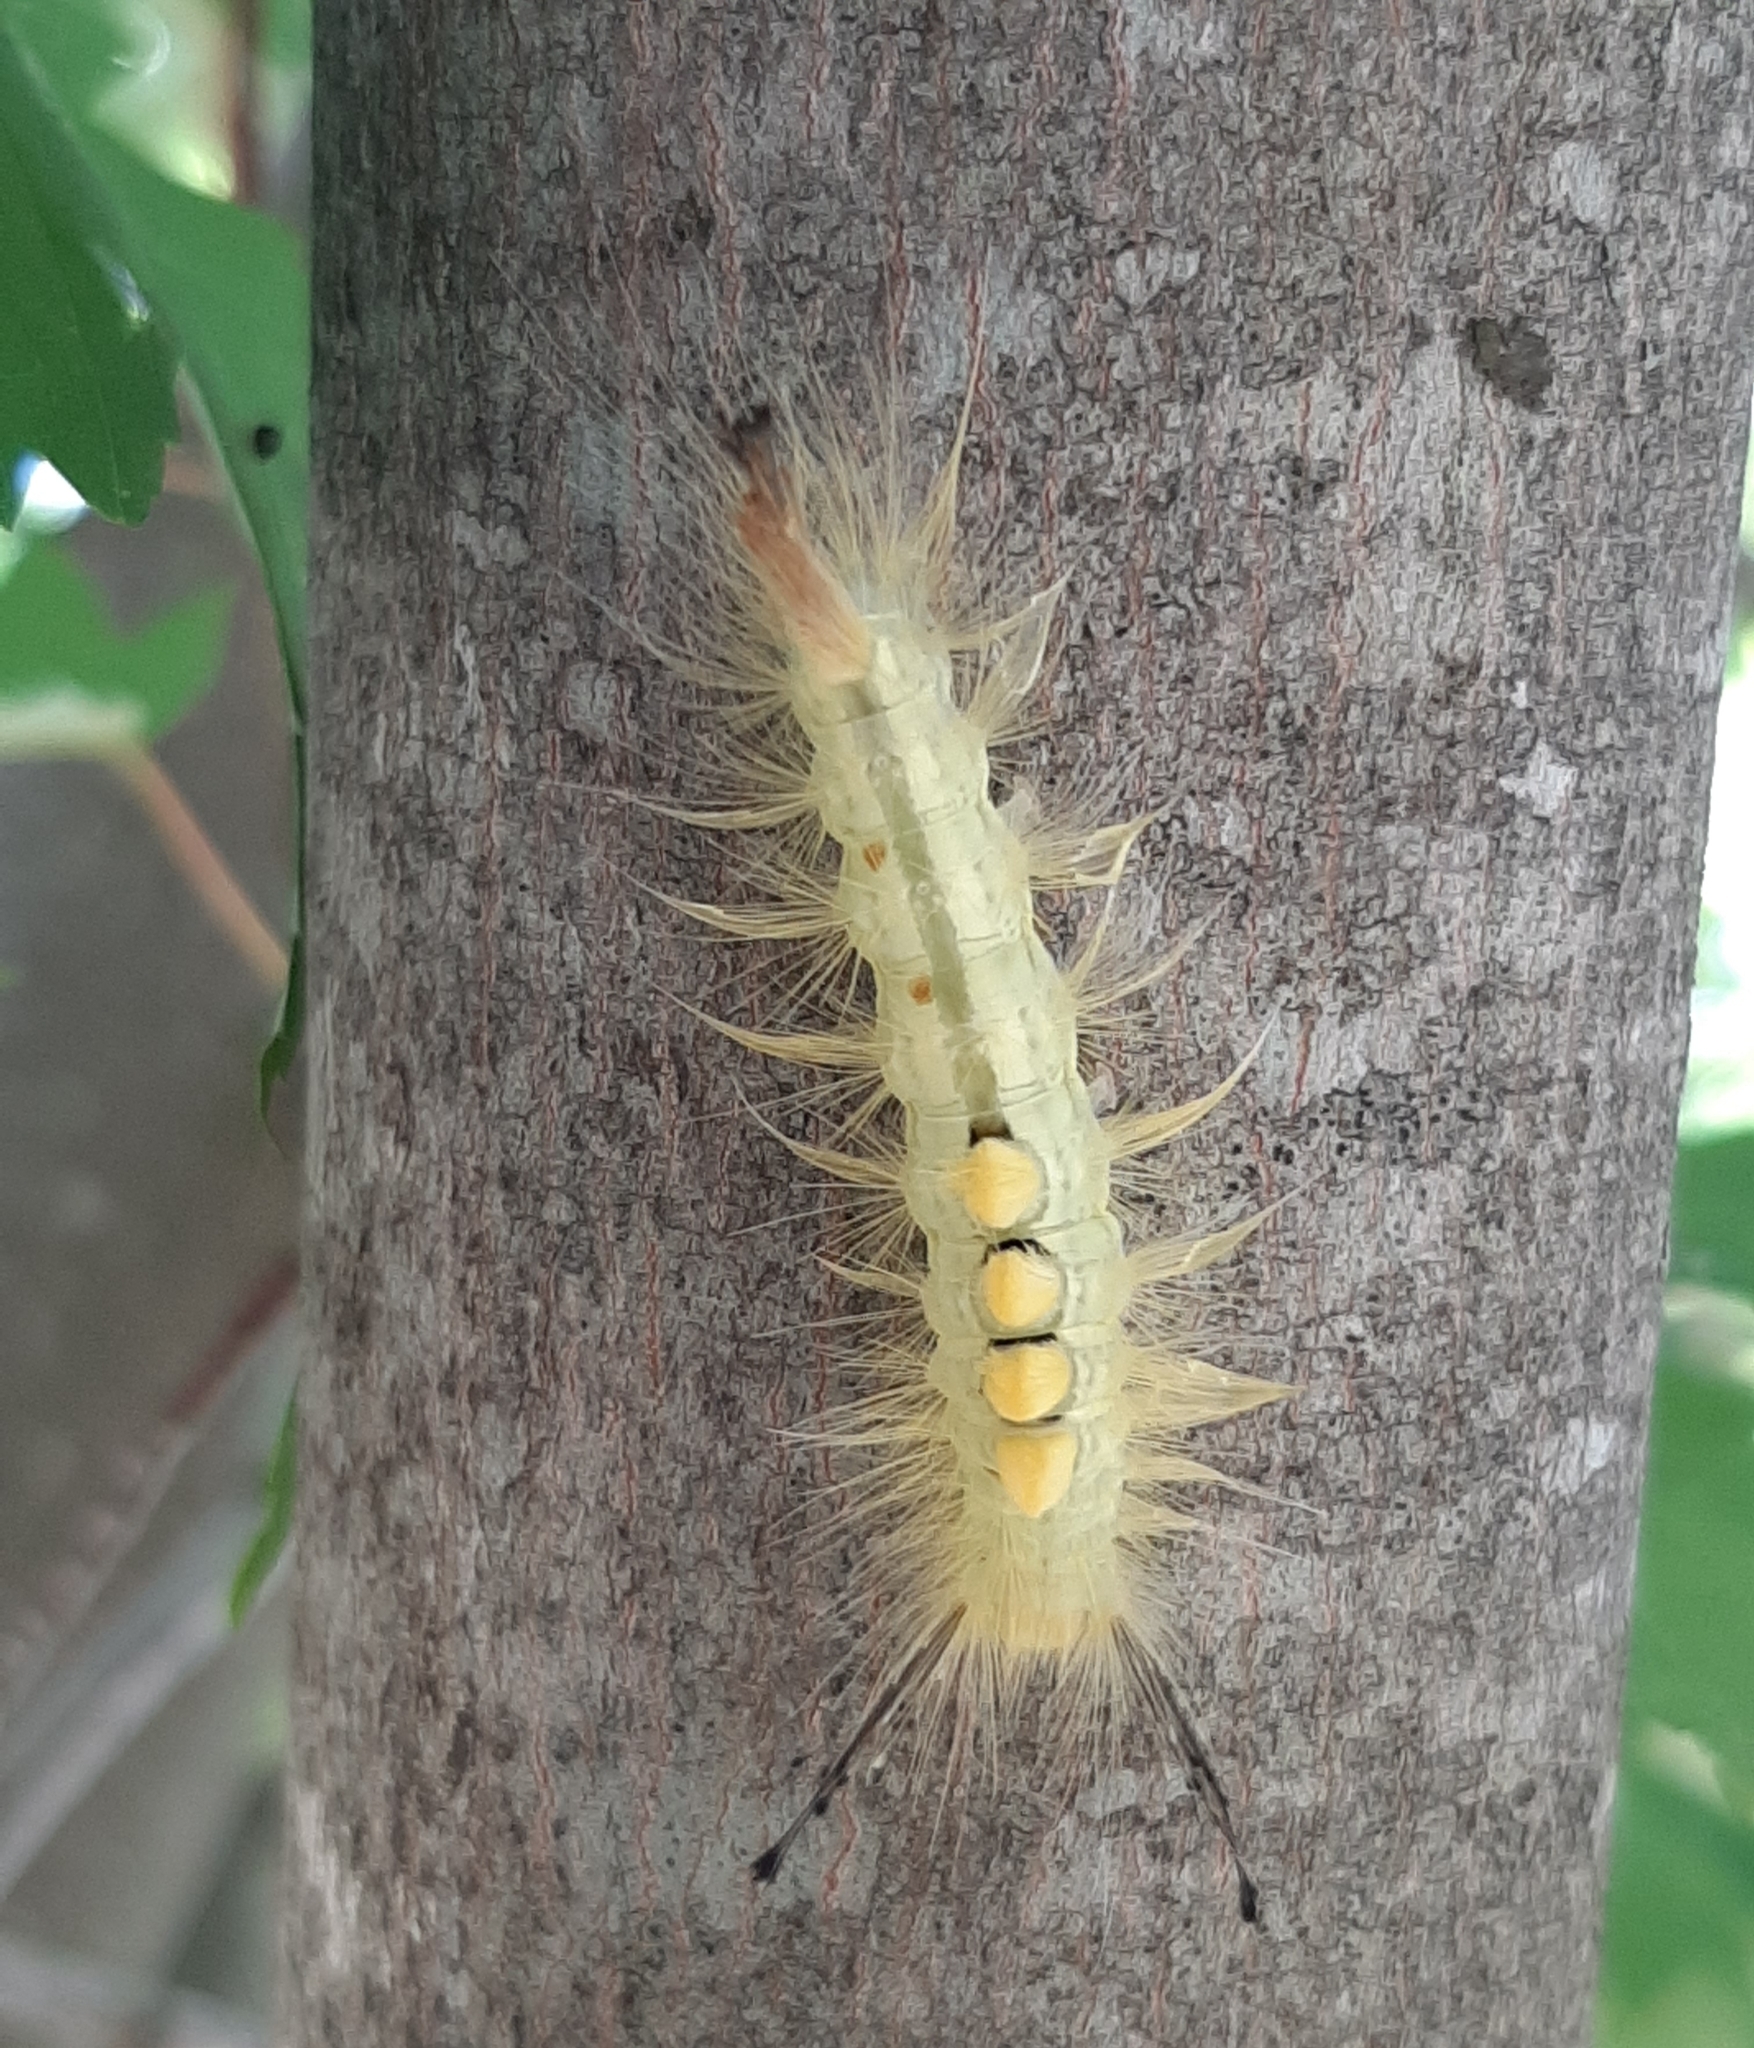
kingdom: Animalia
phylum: Arthropoda
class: Insecta
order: Lepidoptera
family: Erebidae
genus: Orgyia
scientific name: Orgyia definita
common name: Definite tussock moth
